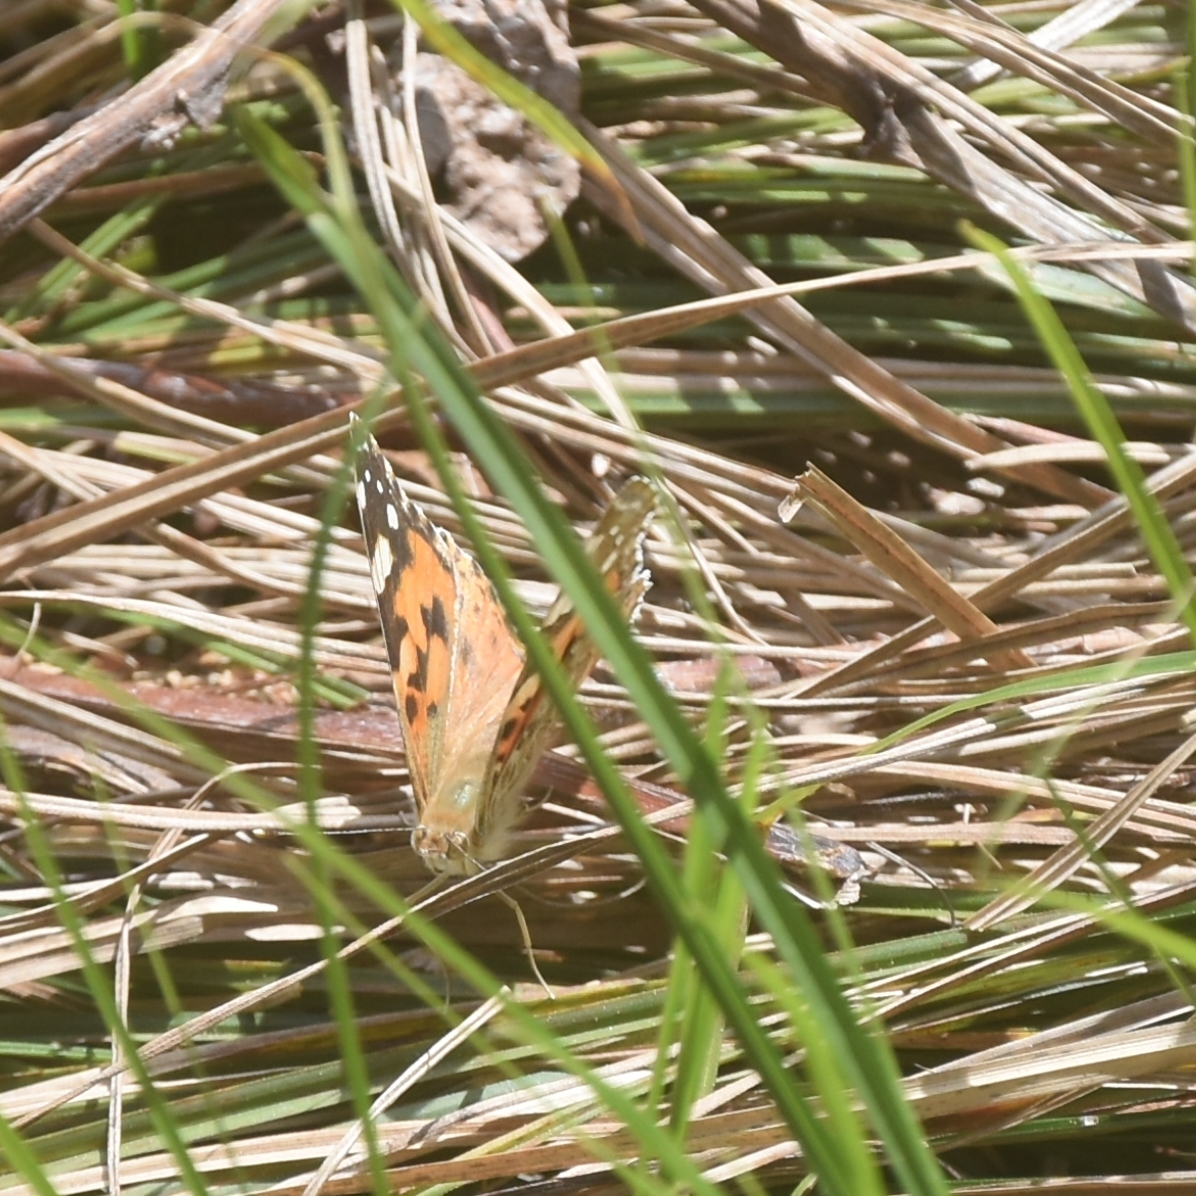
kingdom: Animalia
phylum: Arthropoda
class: Insecta
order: Lepidoptera
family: Nymphalidae
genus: Vanessa
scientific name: Vanessa cardui
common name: Painted lady
